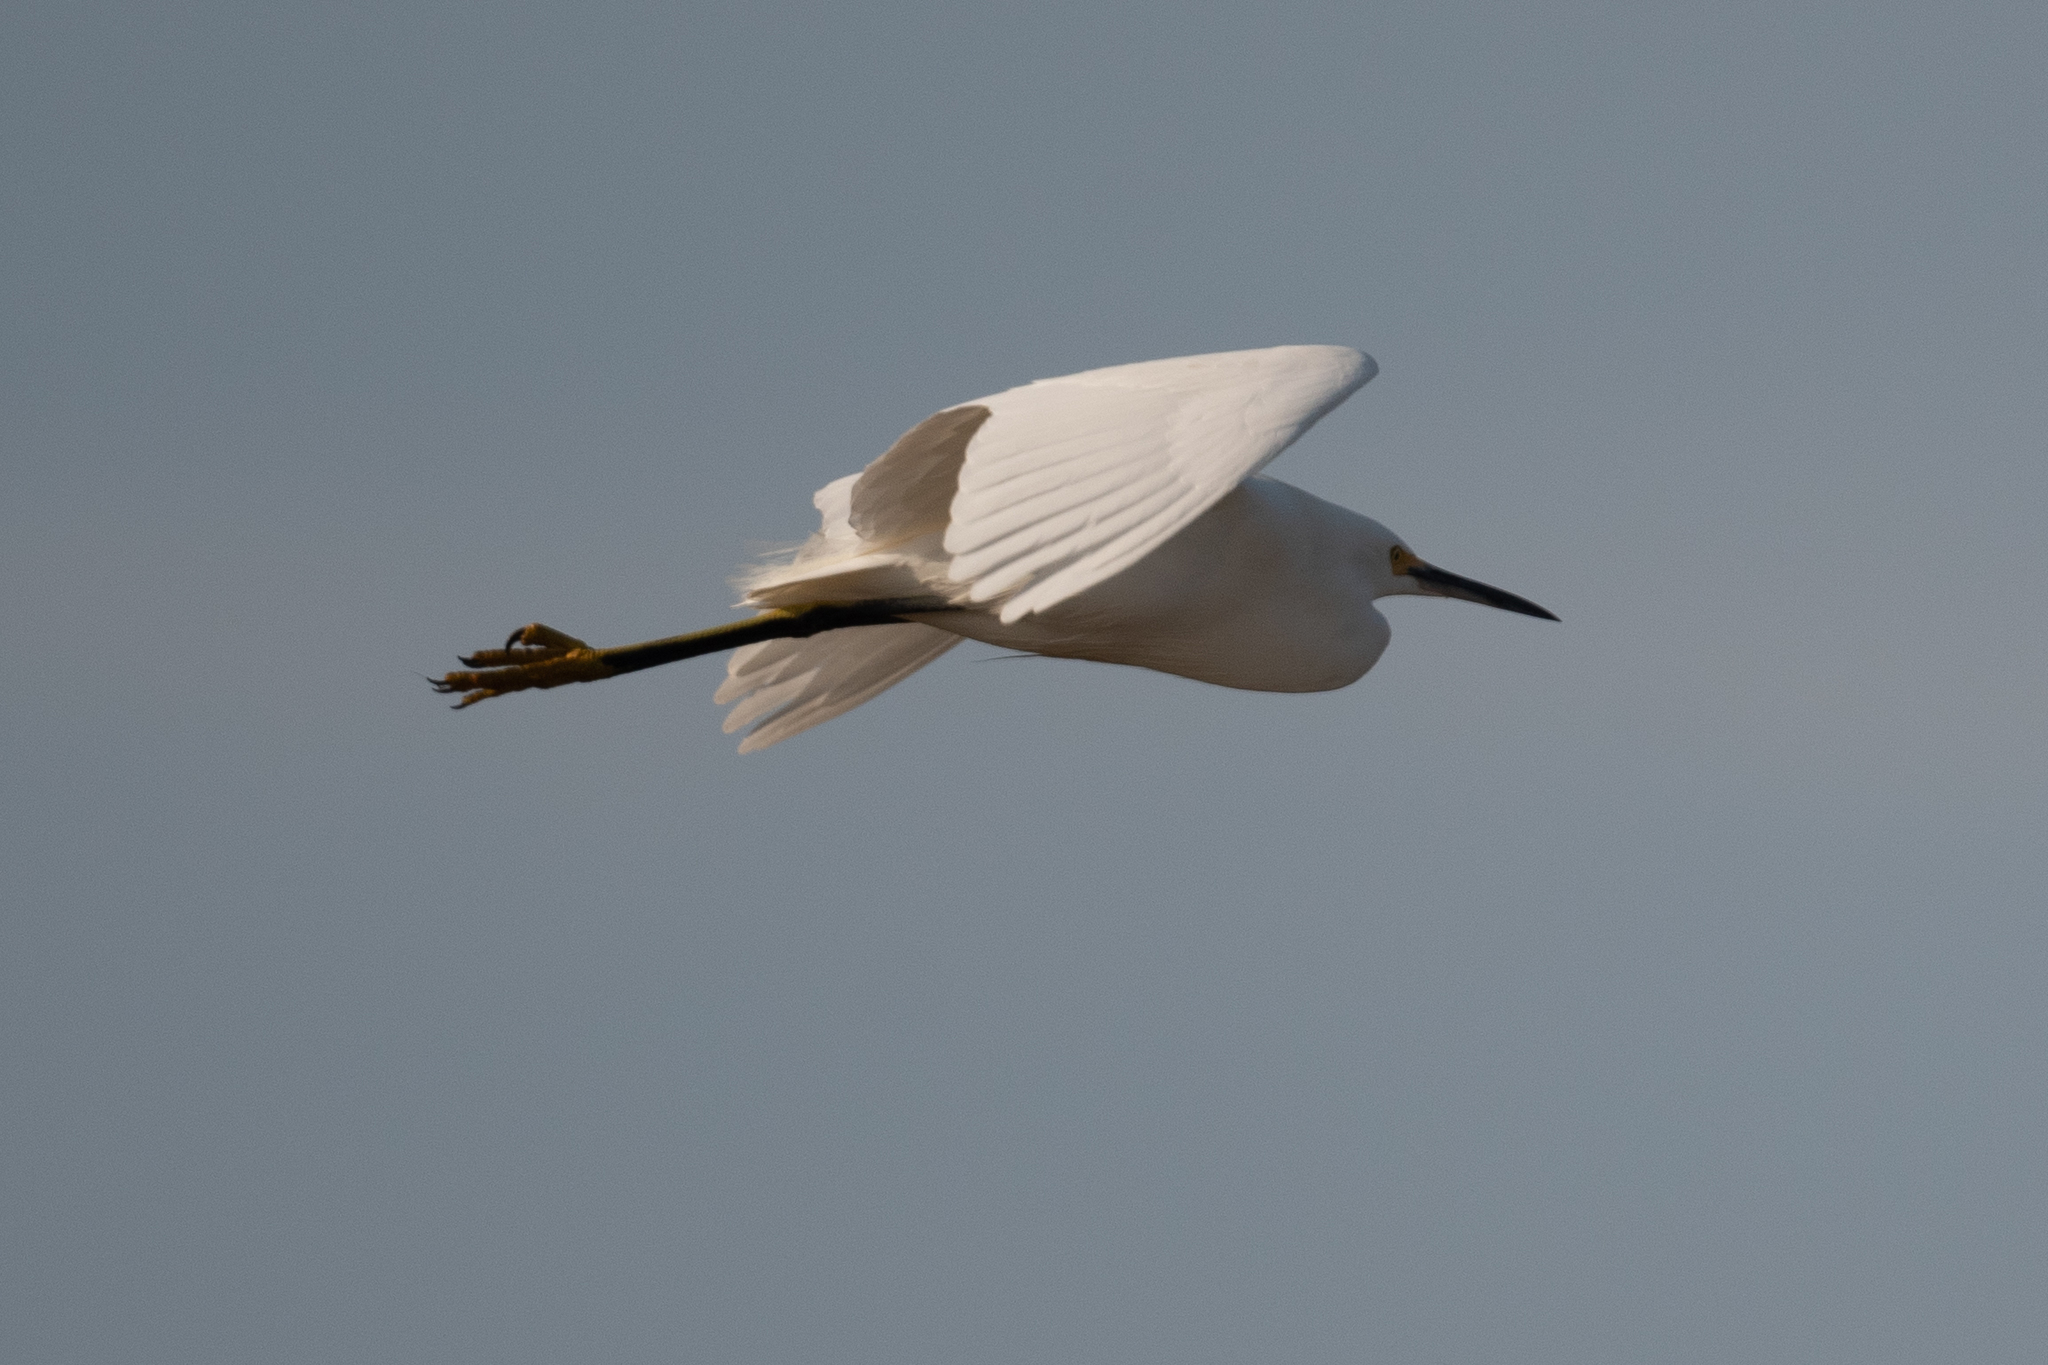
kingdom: Animalia
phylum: Chordata
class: Aves
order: Pelecaniformes
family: Ardeidae
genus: Egretta
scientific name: Egretta thula
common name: Snowy egret
